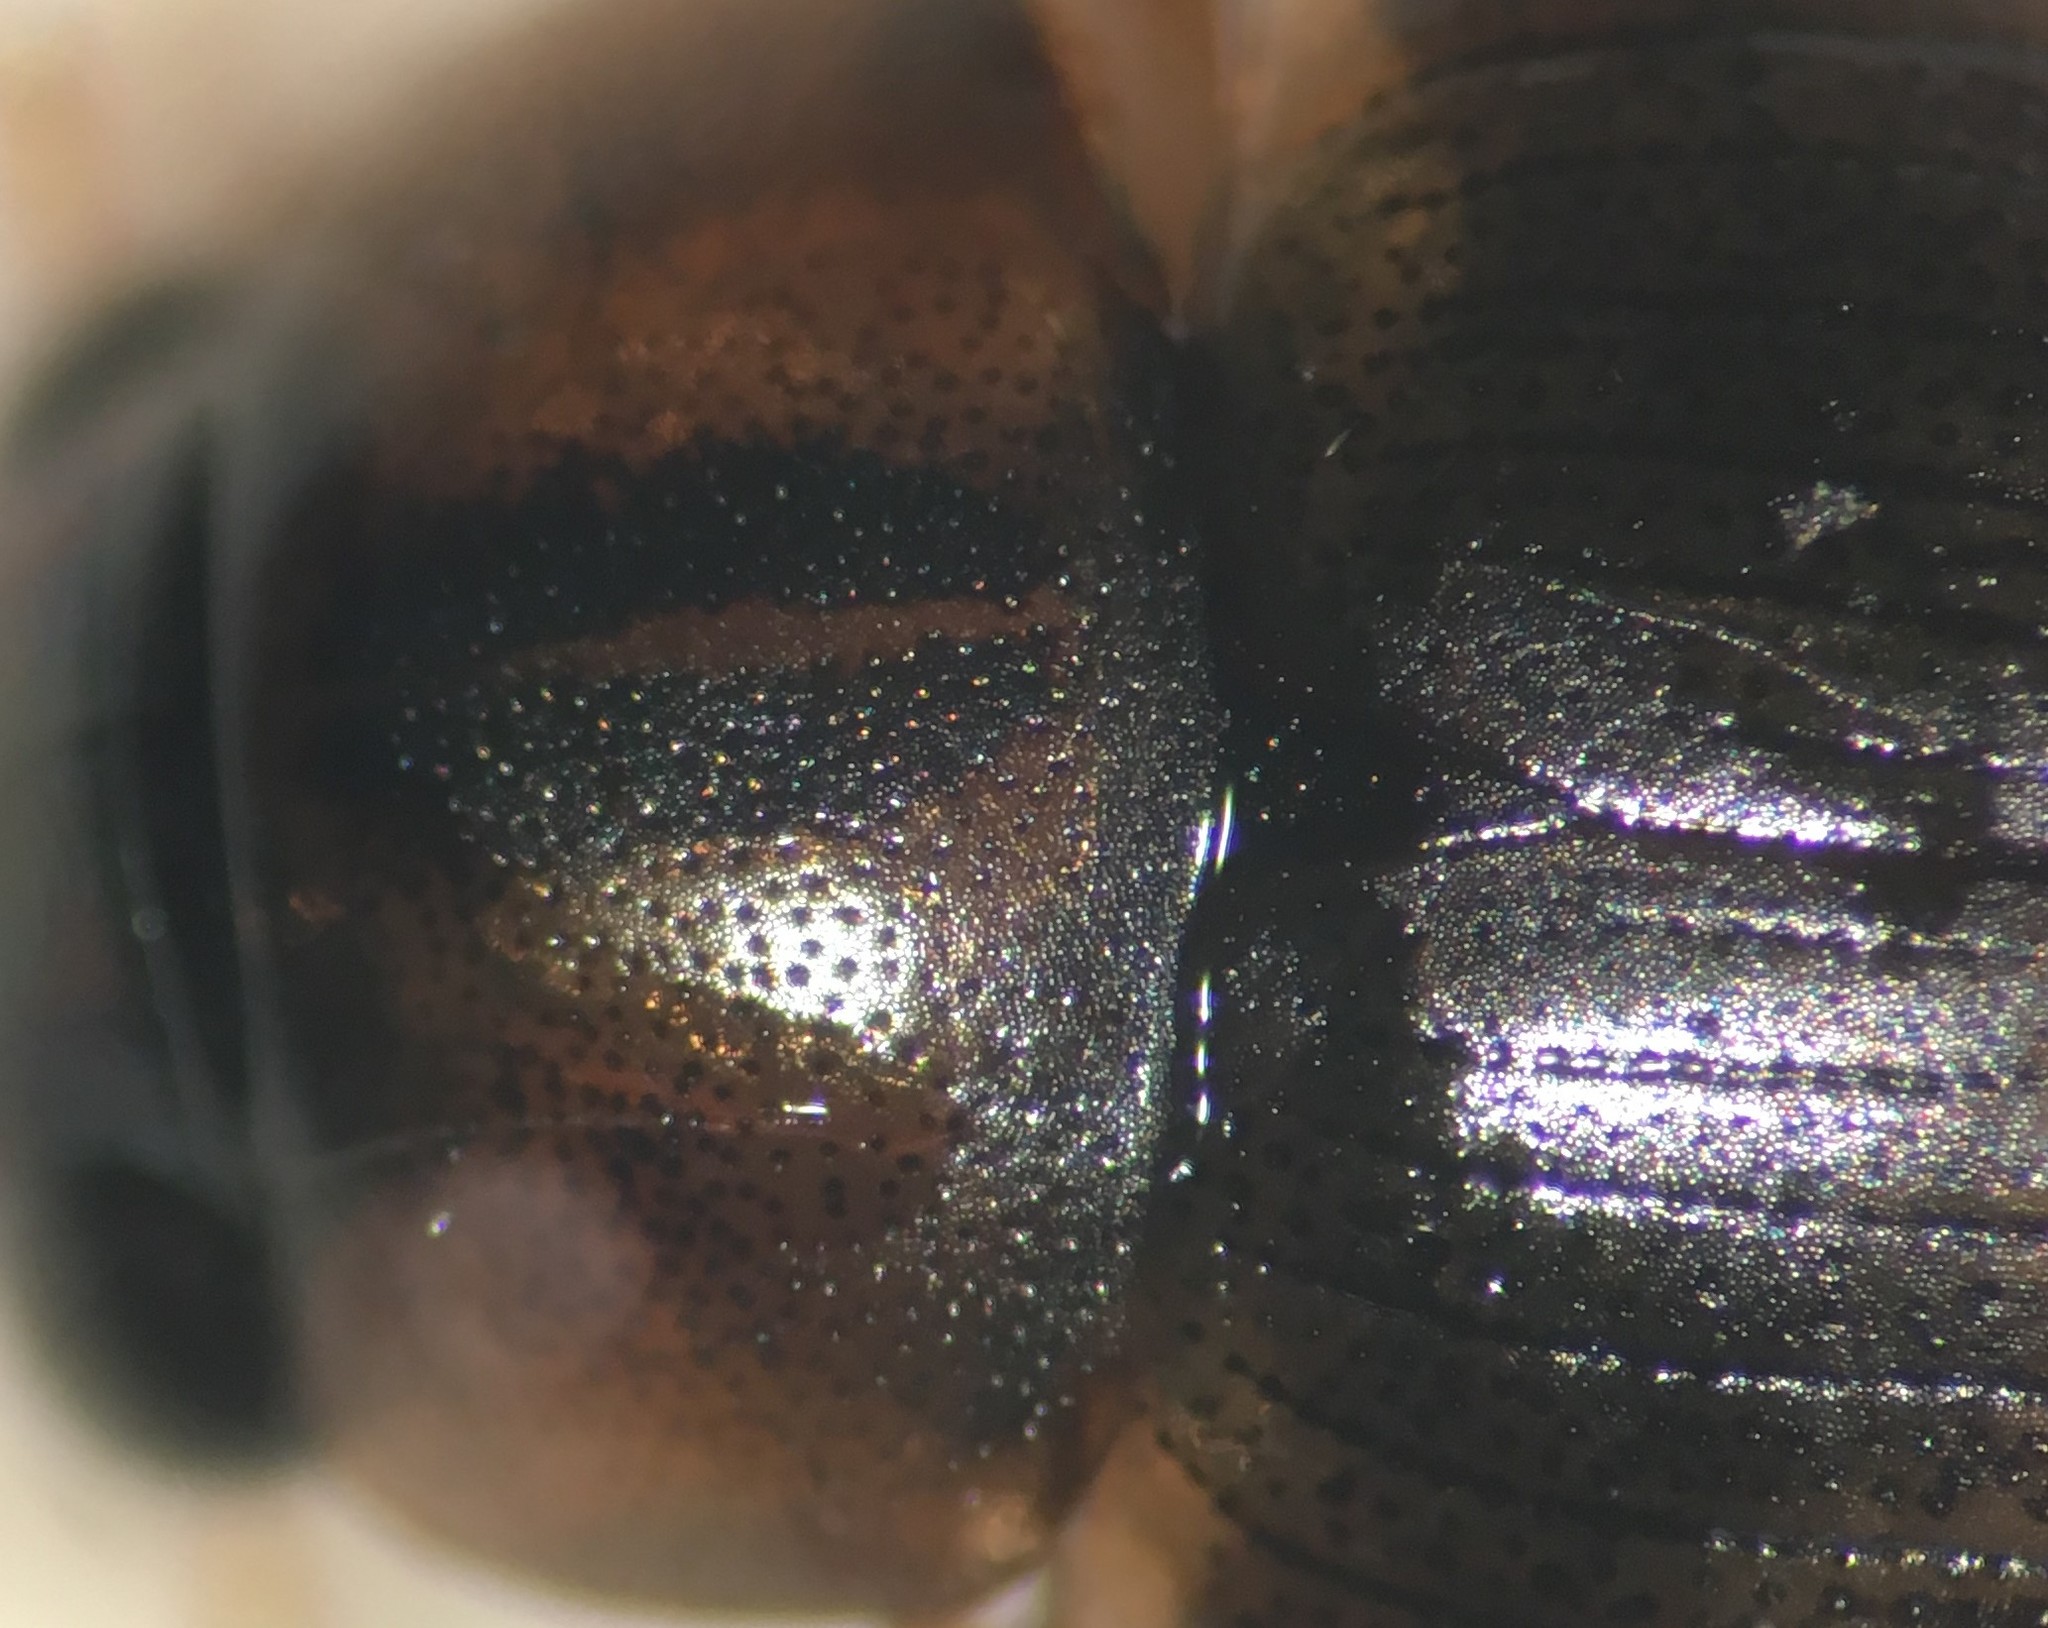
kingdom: Animalia
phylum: Arthropoda
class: Insecta
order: Coleoptera
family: Hydrophilidae
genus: Berosus
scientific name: Berosus infuscatus
